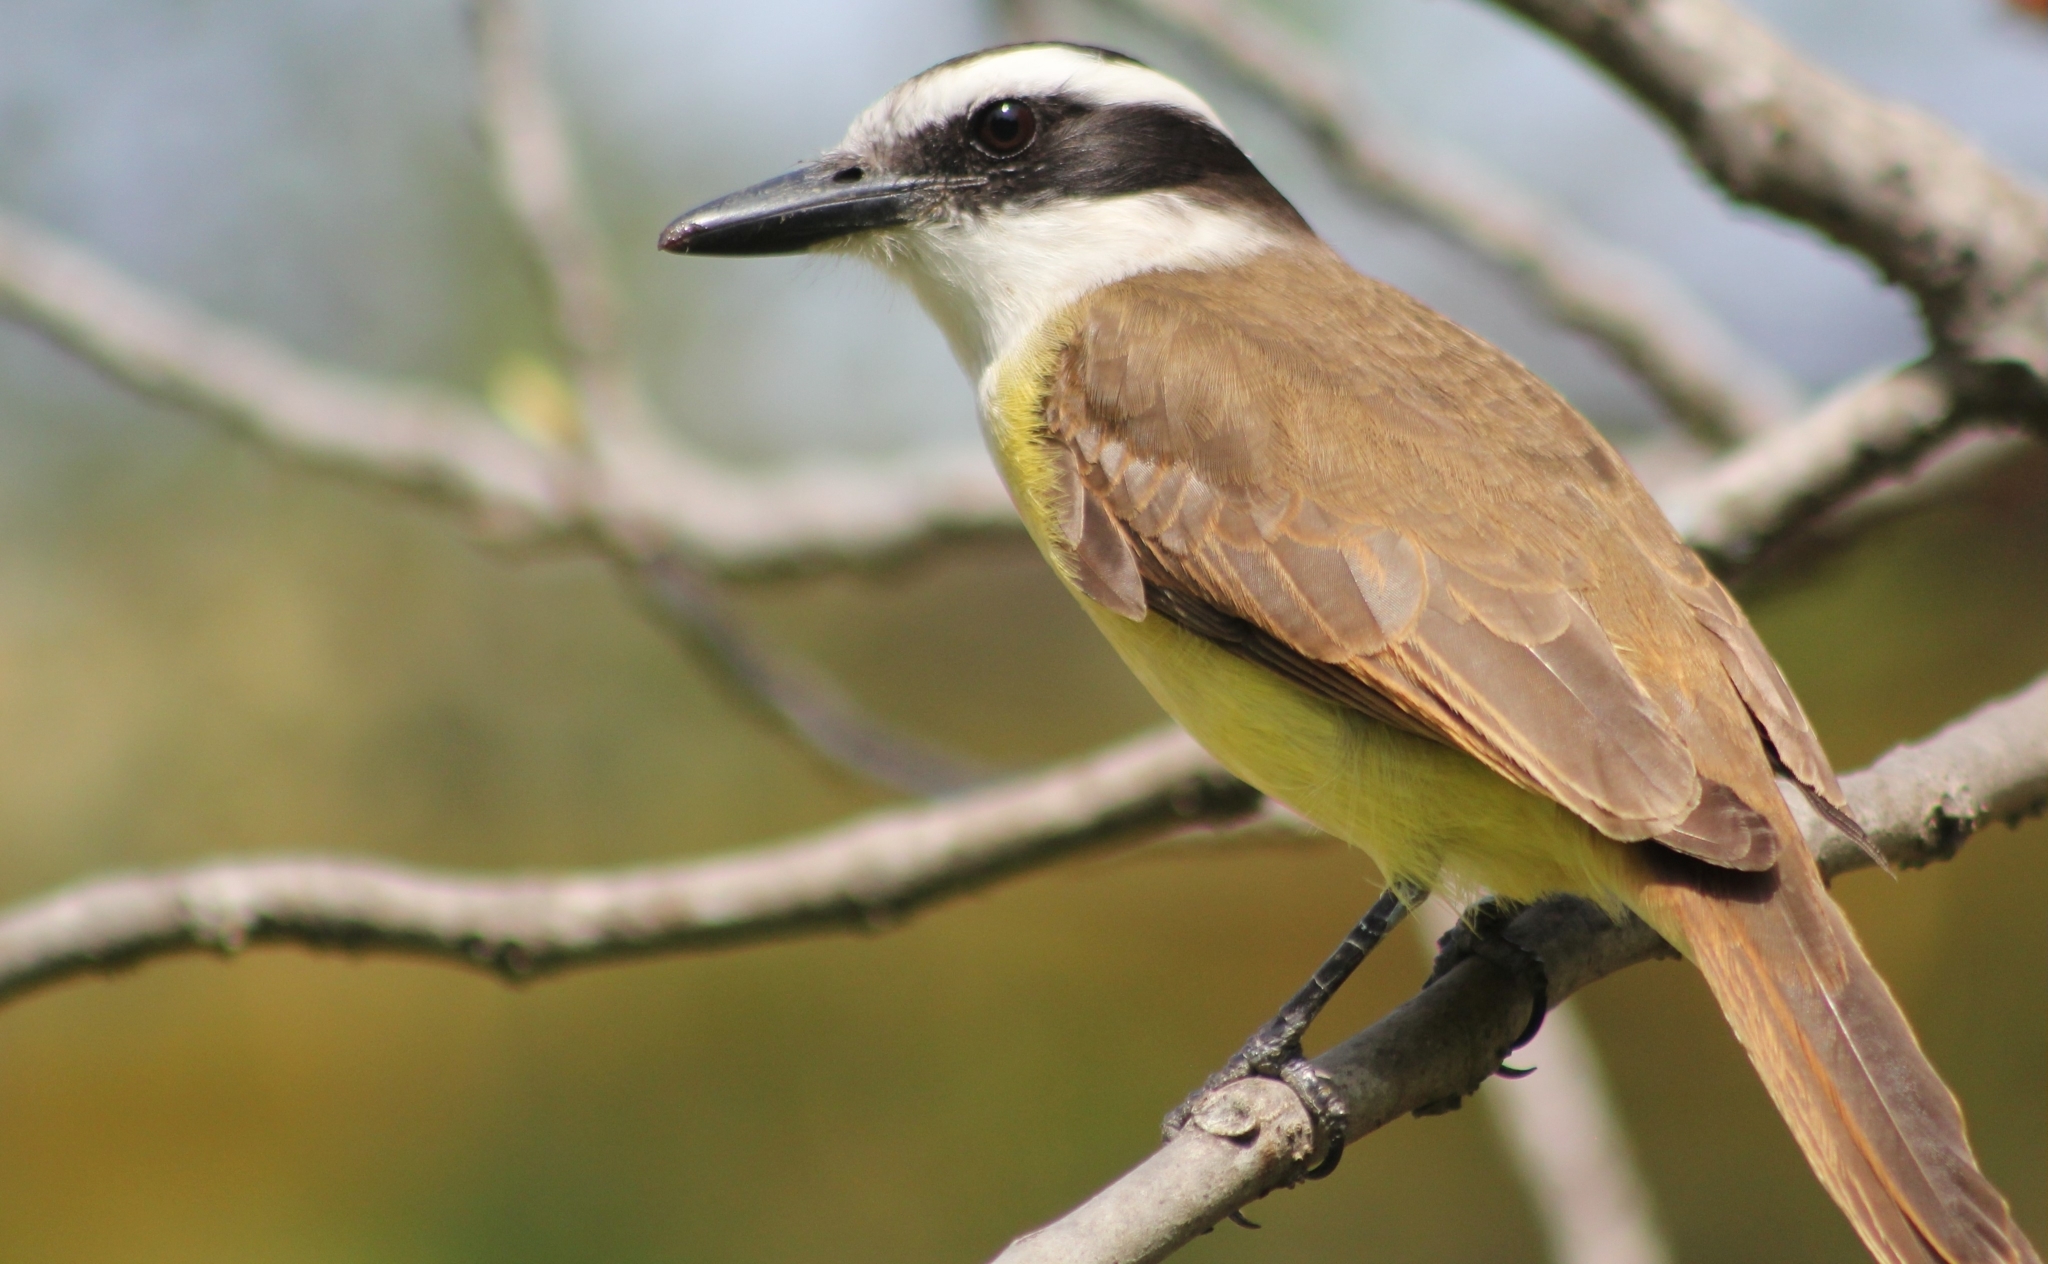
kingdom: Animalia
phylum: Chordata
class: Aves
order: Passeriformes
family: Tyrannidae
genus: Pitangus
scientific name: Pitangus sulphuratus
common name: Great kiskadee
